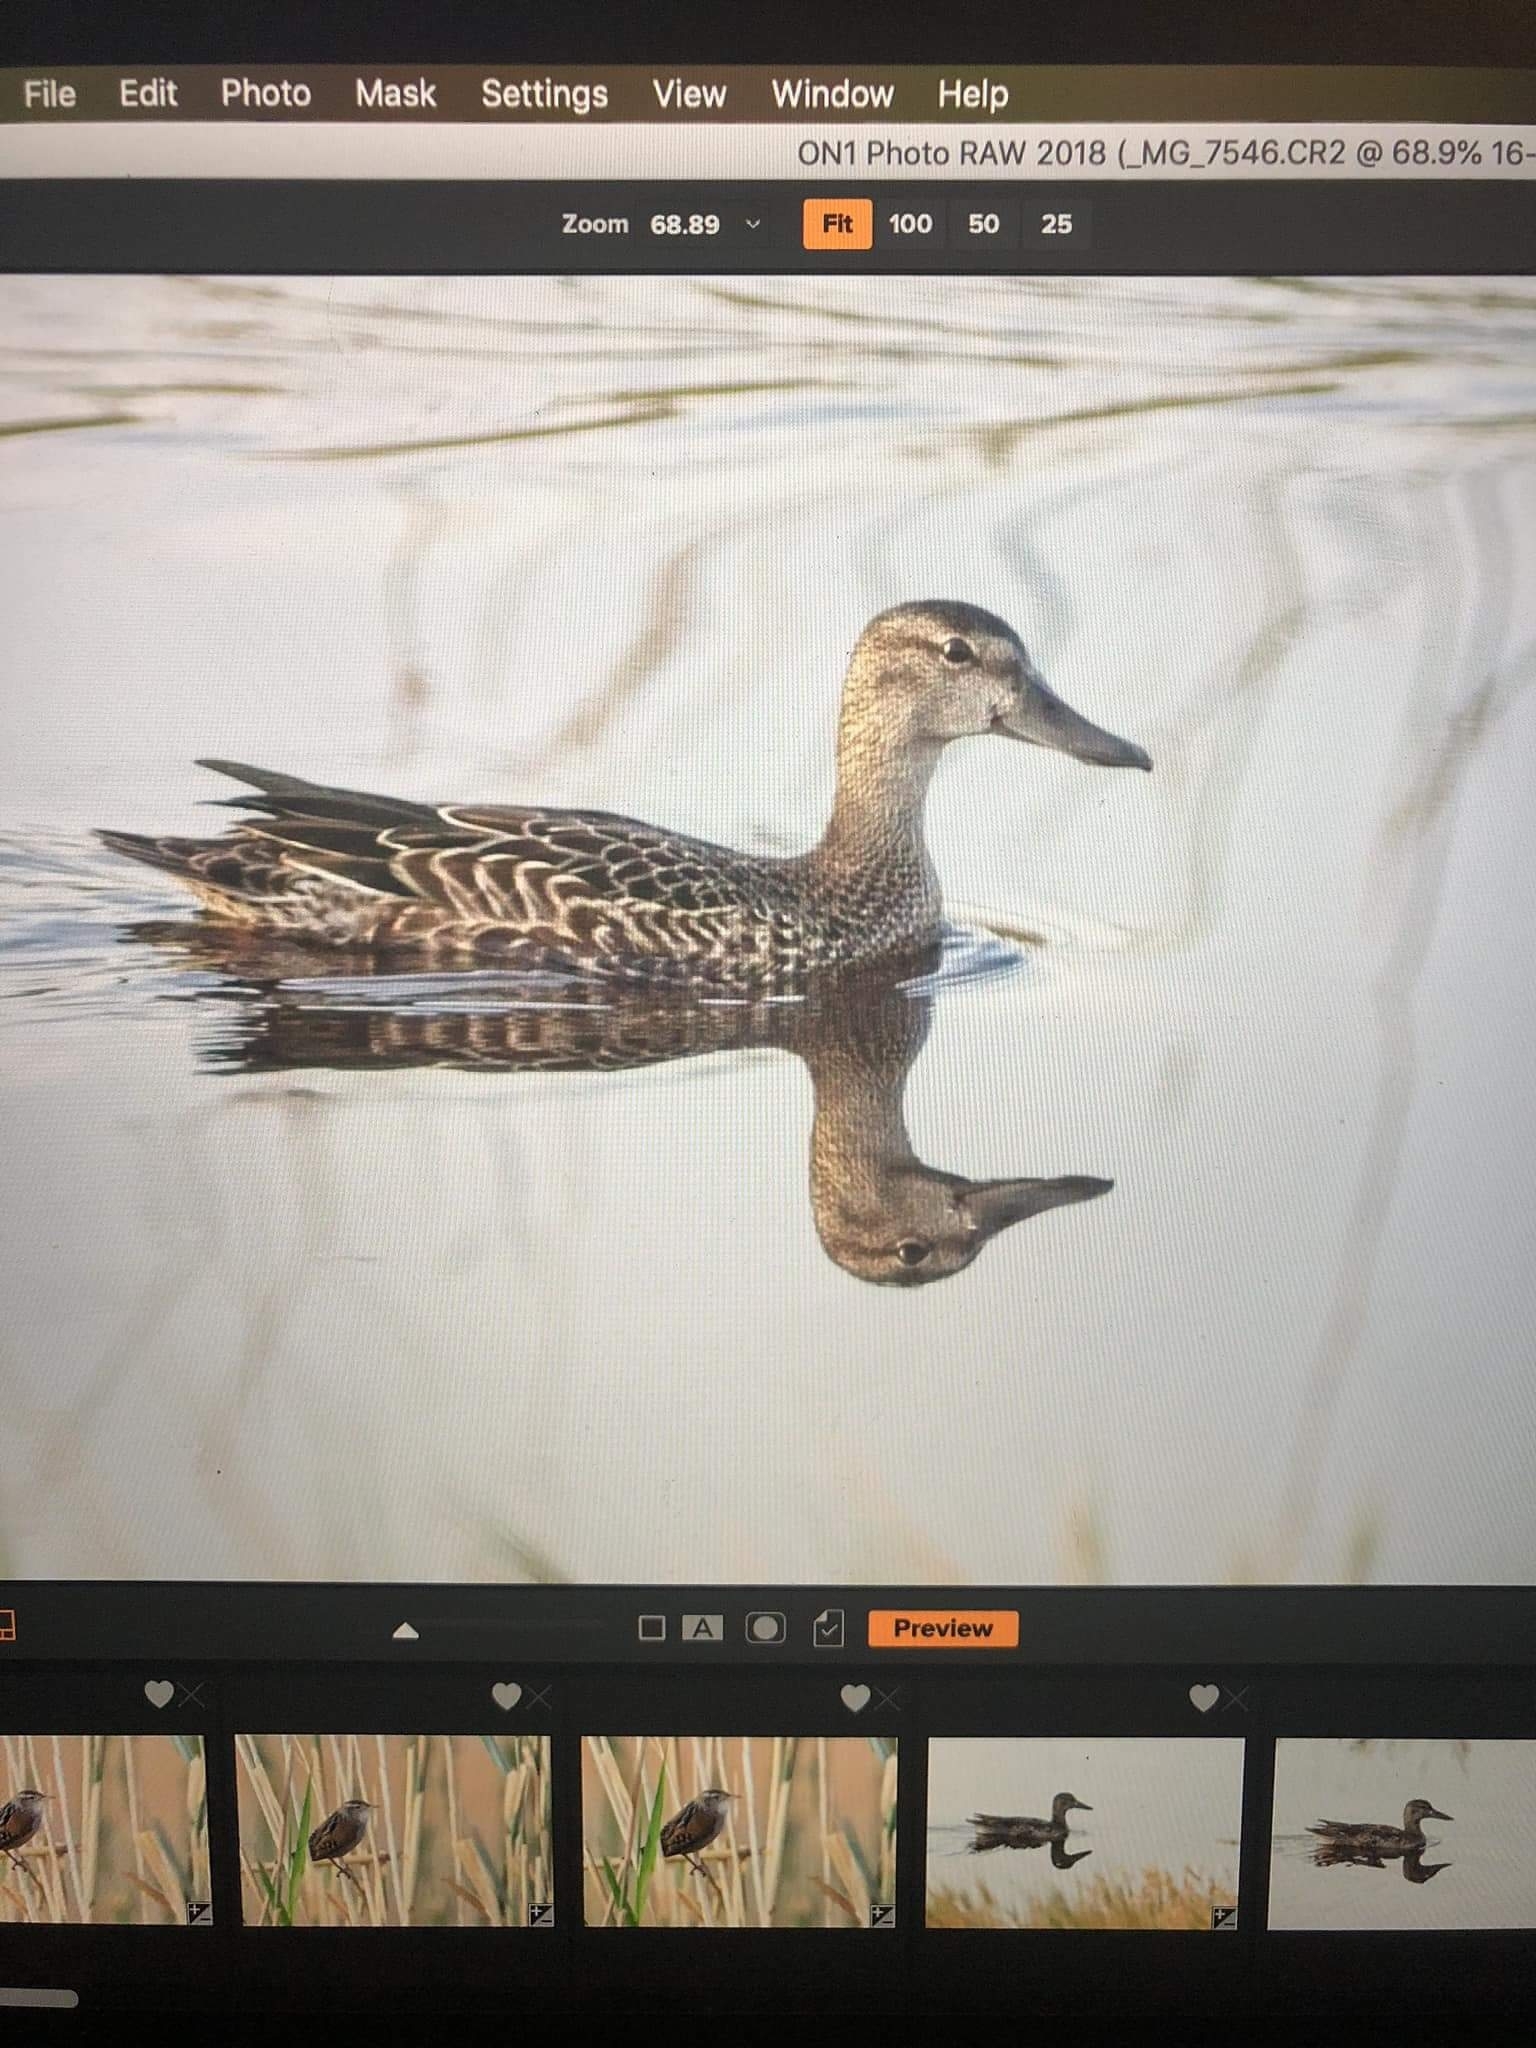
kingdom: Animalia
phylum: Chordata
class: Aves
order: Anseriformes
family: Anatidae
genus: Spatula
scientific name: Spatula discors
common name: Blue-winged teal
